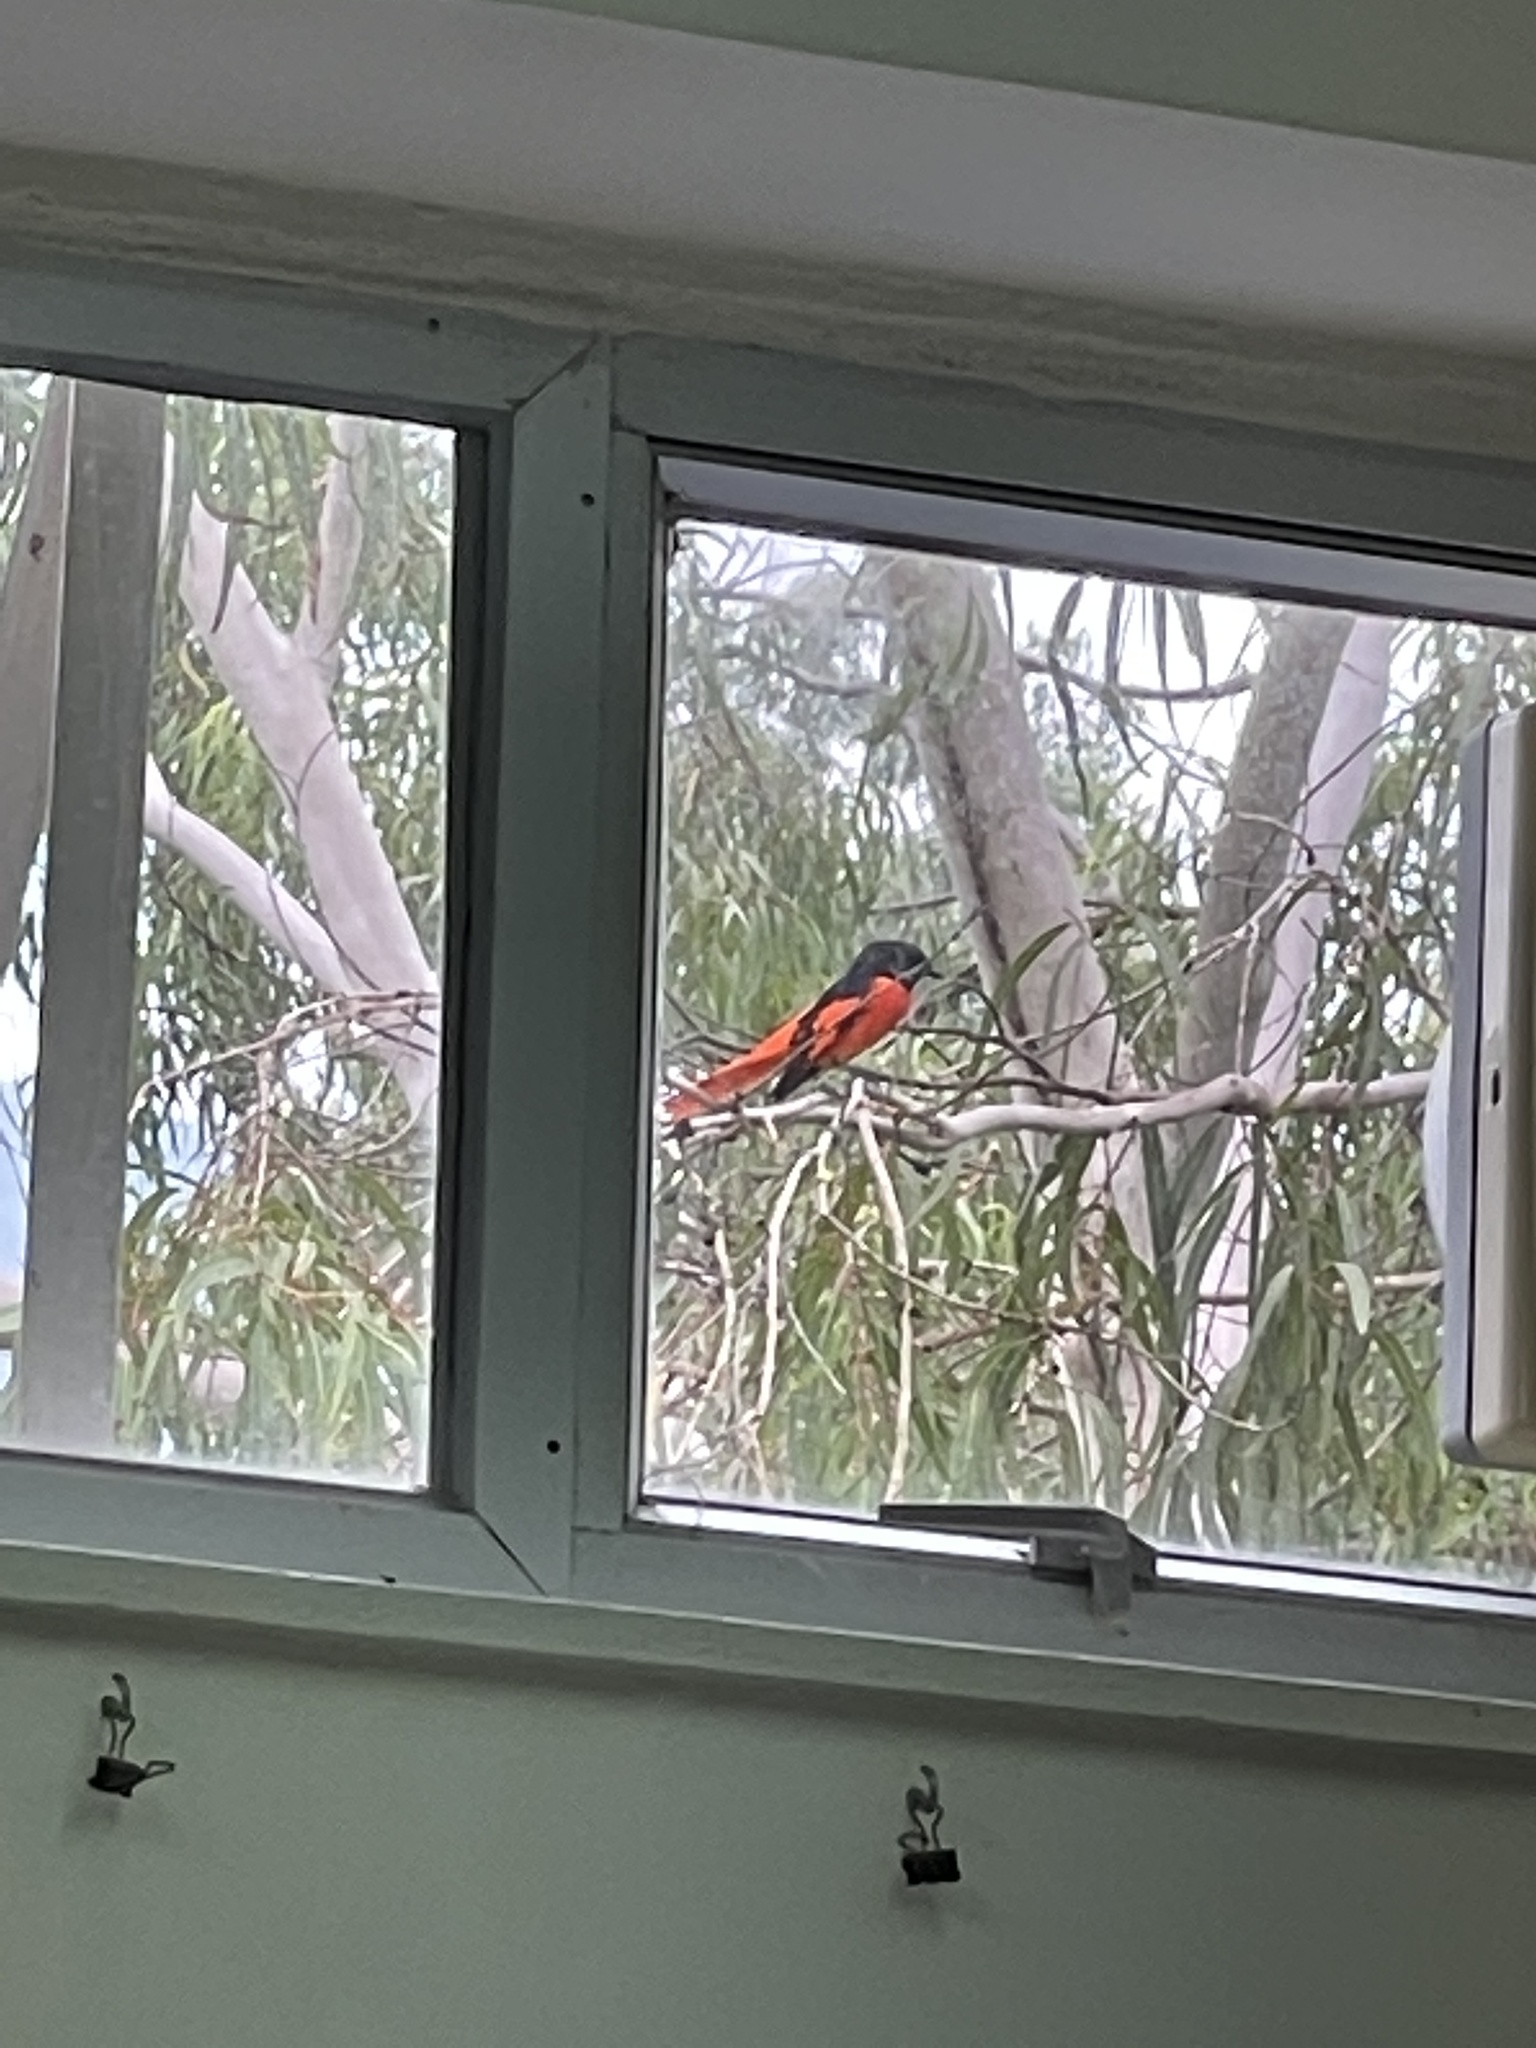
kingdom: Animalia
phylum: Chordata
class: Aves
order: Passeriformes
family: Campephagidae
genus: Pericrocotus
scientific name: Pericrocotus speciosus
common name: Scarlet minivet
